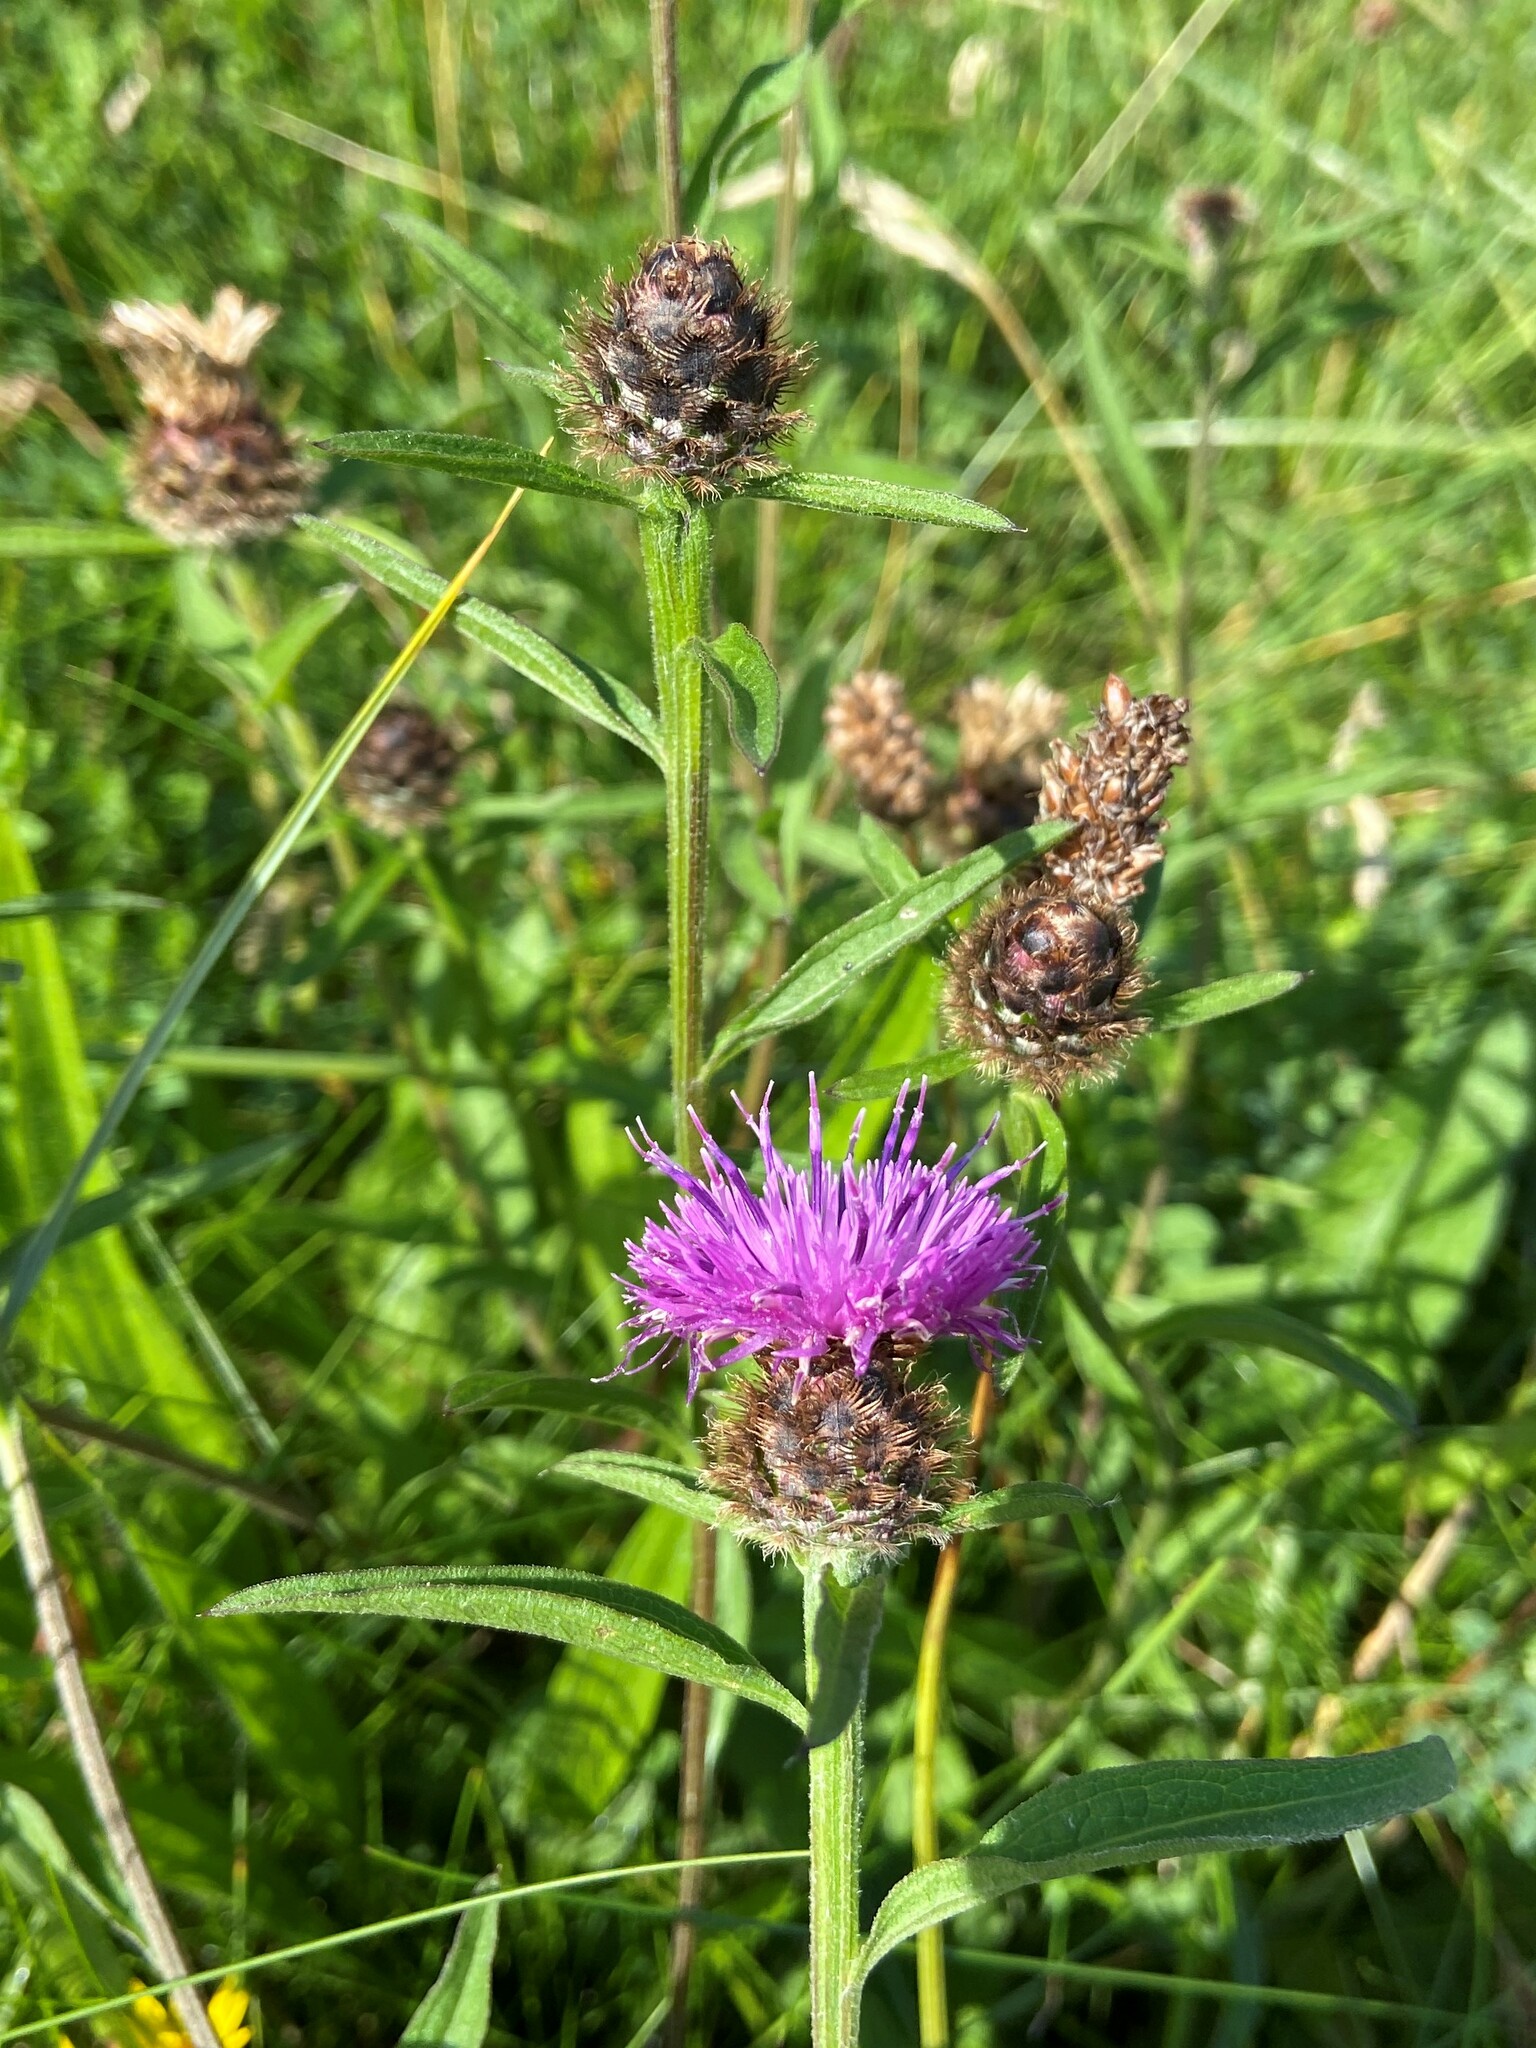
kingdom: Plantae
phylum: Tracheophyta
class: Magnoliopsida
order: Asterales
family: Asteraceae
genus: Centaurea
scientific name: Centaurea nigra
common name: Lesser knapweed
